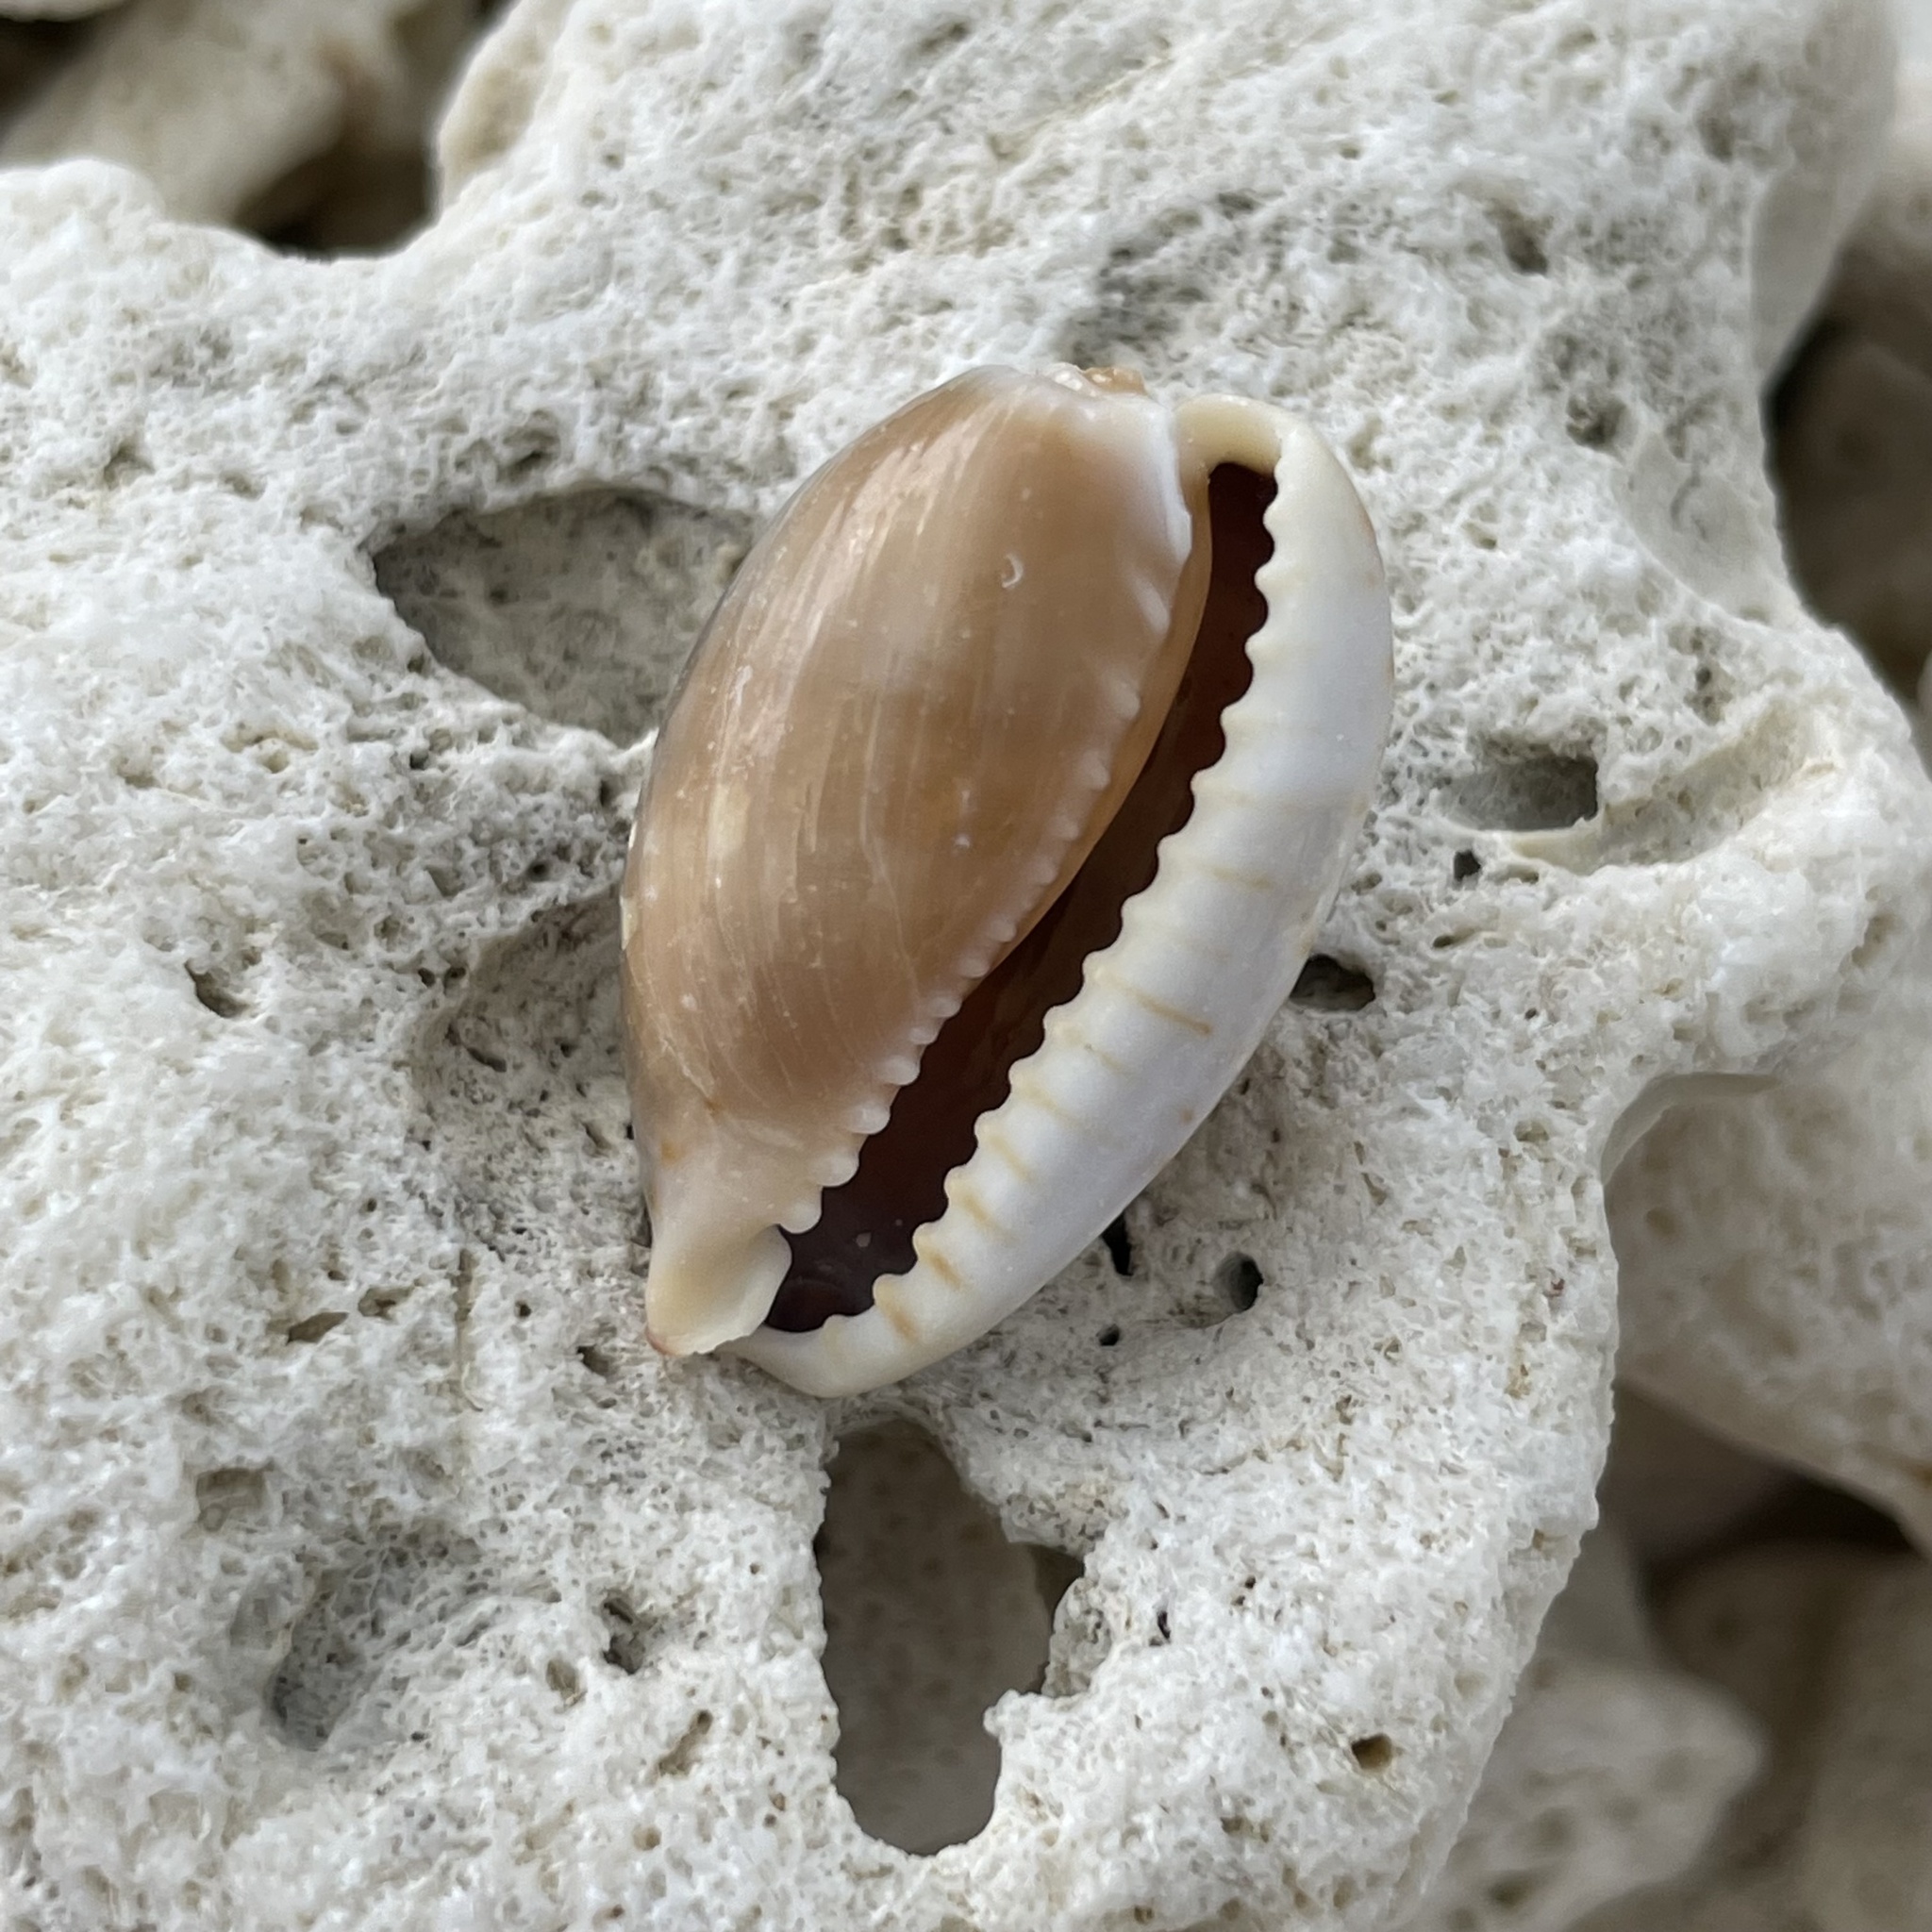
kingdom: Animalia
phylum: Mollusca
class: Gastropoda
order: Littorinimorpha
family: Cypraeidae
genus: Naria
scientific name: Naria erosa
